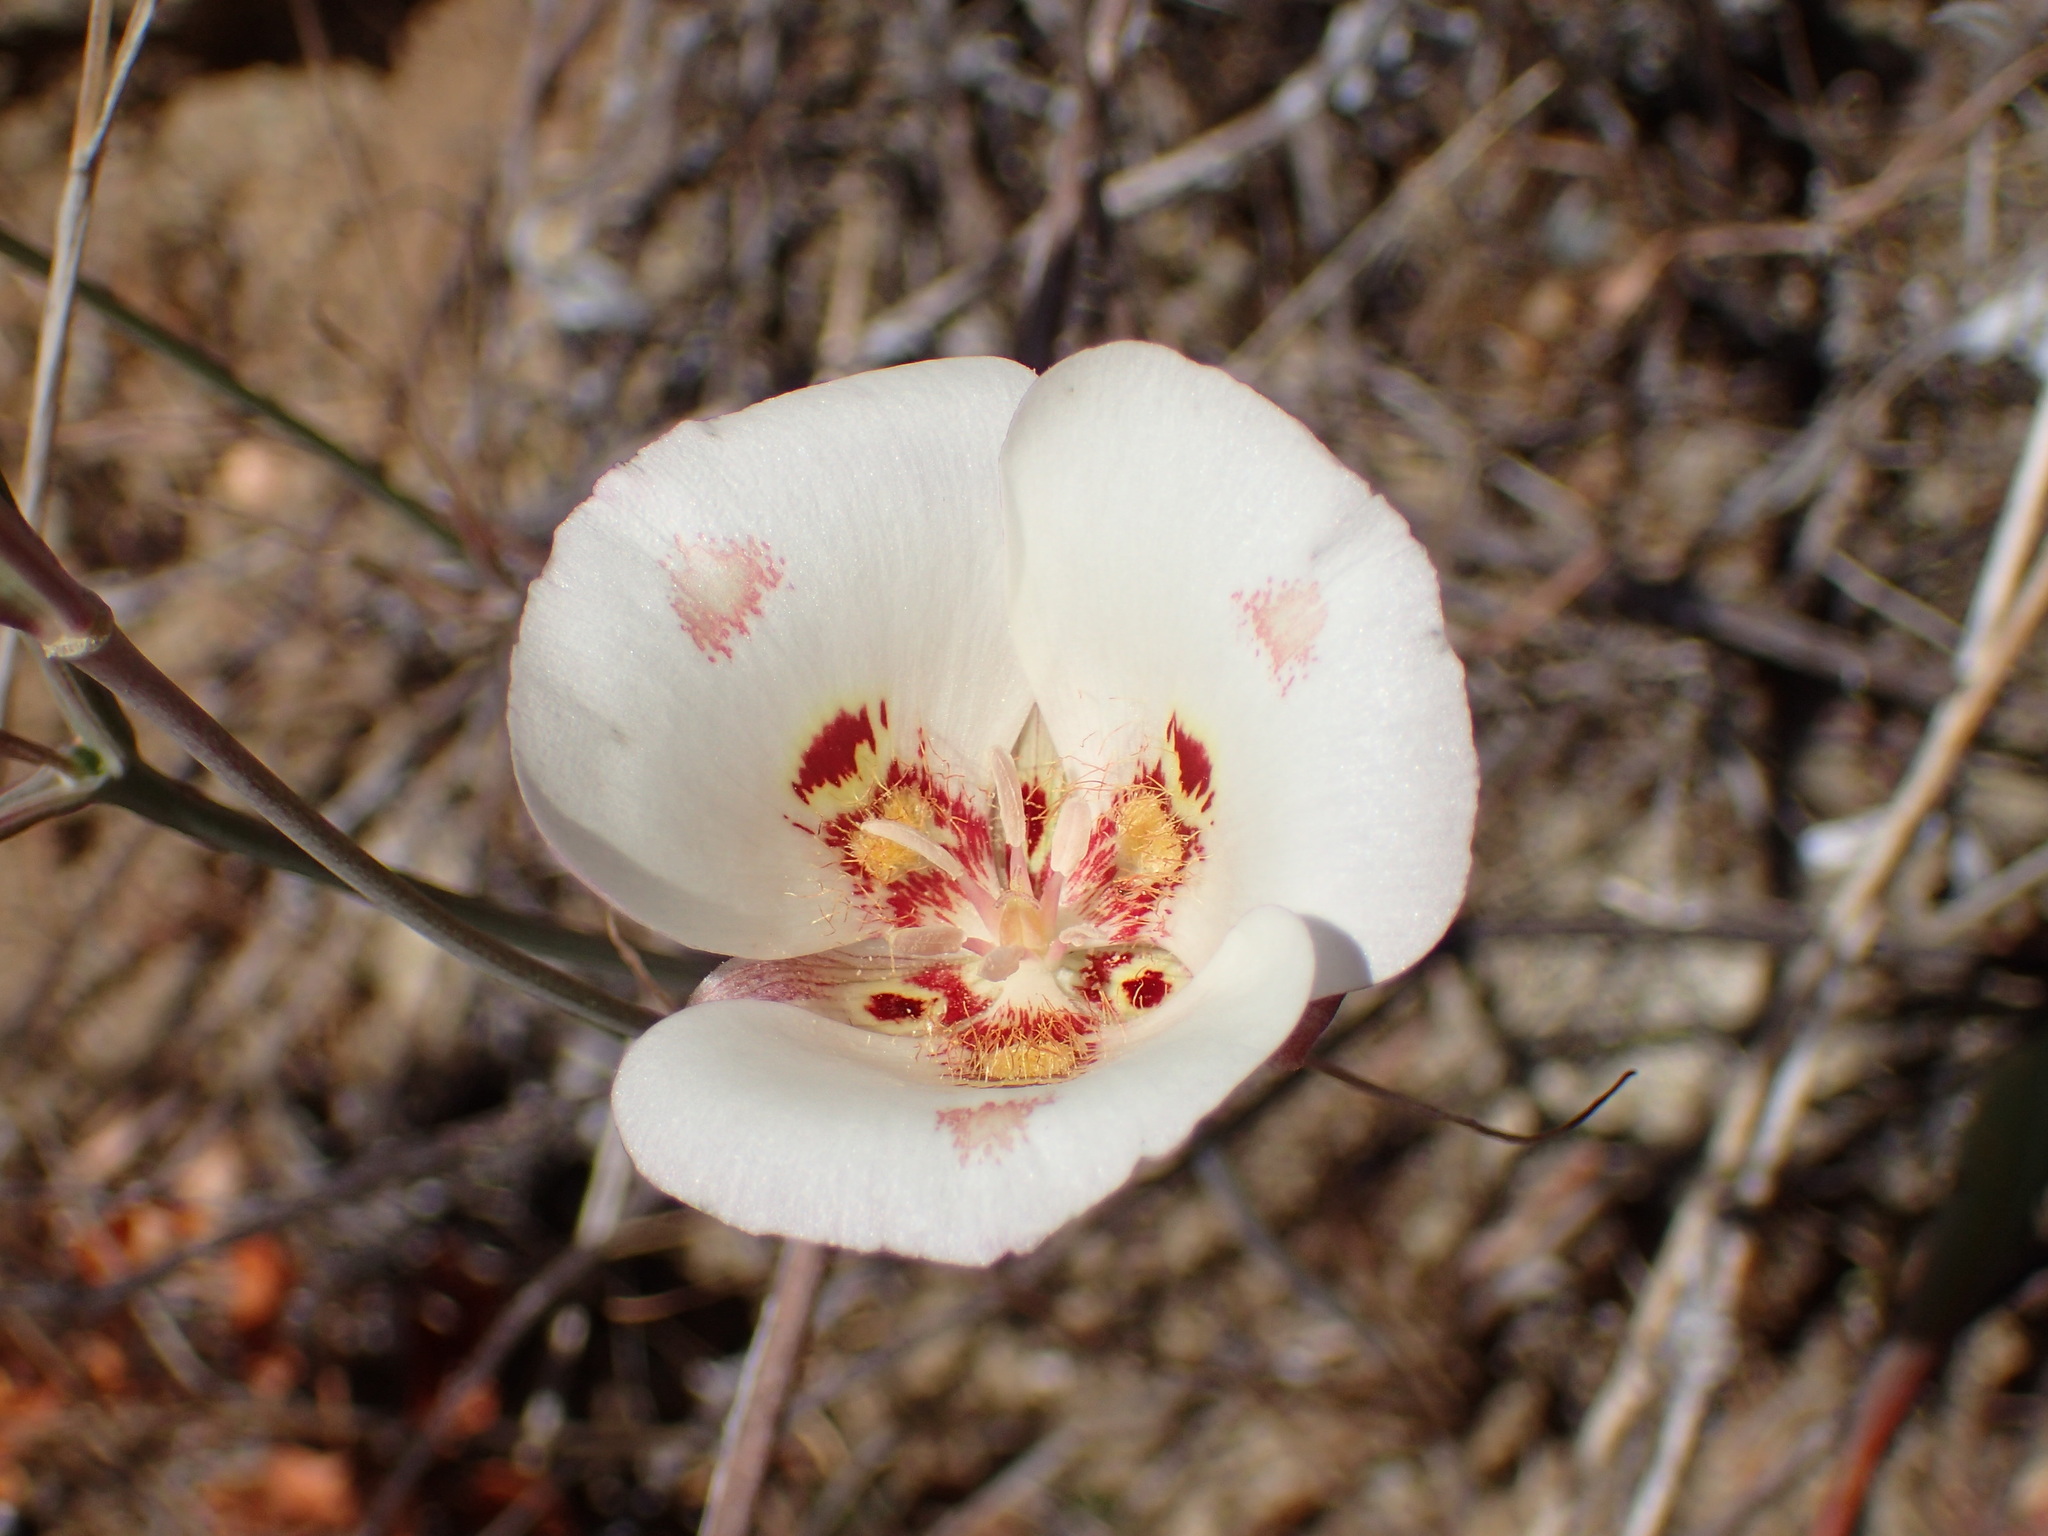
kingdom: Plantae
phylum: Tracheophyta
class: Liliopsida
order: Liliales
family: Liliaceae
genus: Calochortus
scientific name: Calochortus venustus
